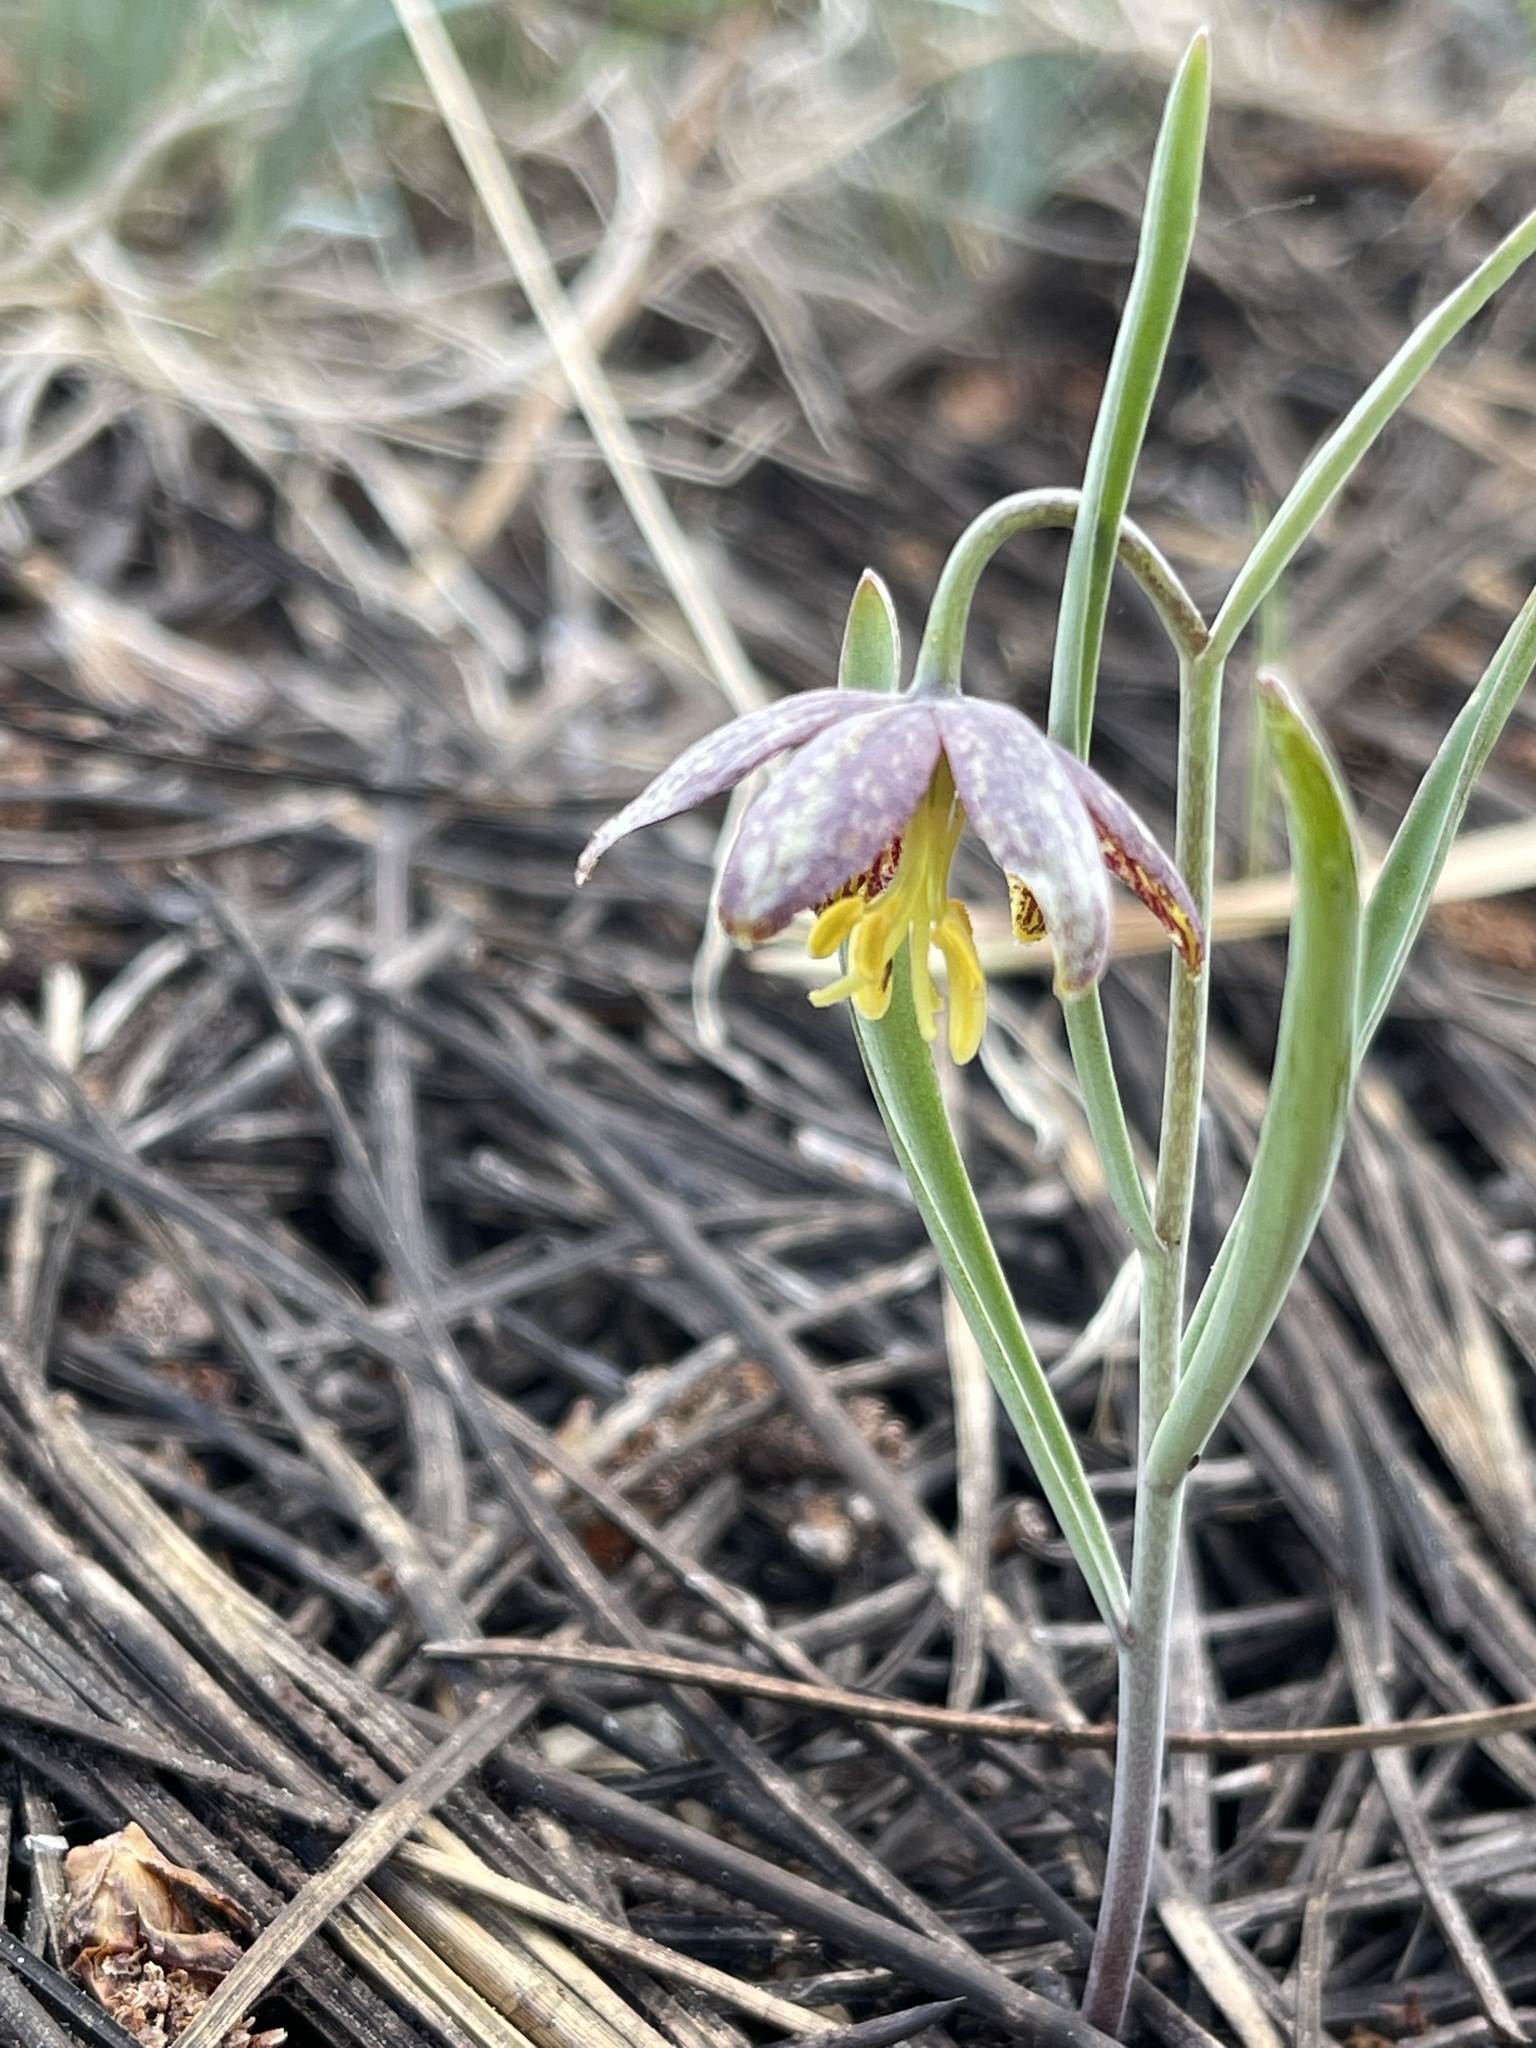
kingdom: Plantae
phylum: Tracheophyta
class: Liliopsida
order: Liliales
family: Liliaceae
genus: Fritillaria
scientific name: Fritillaria atropurpurea
